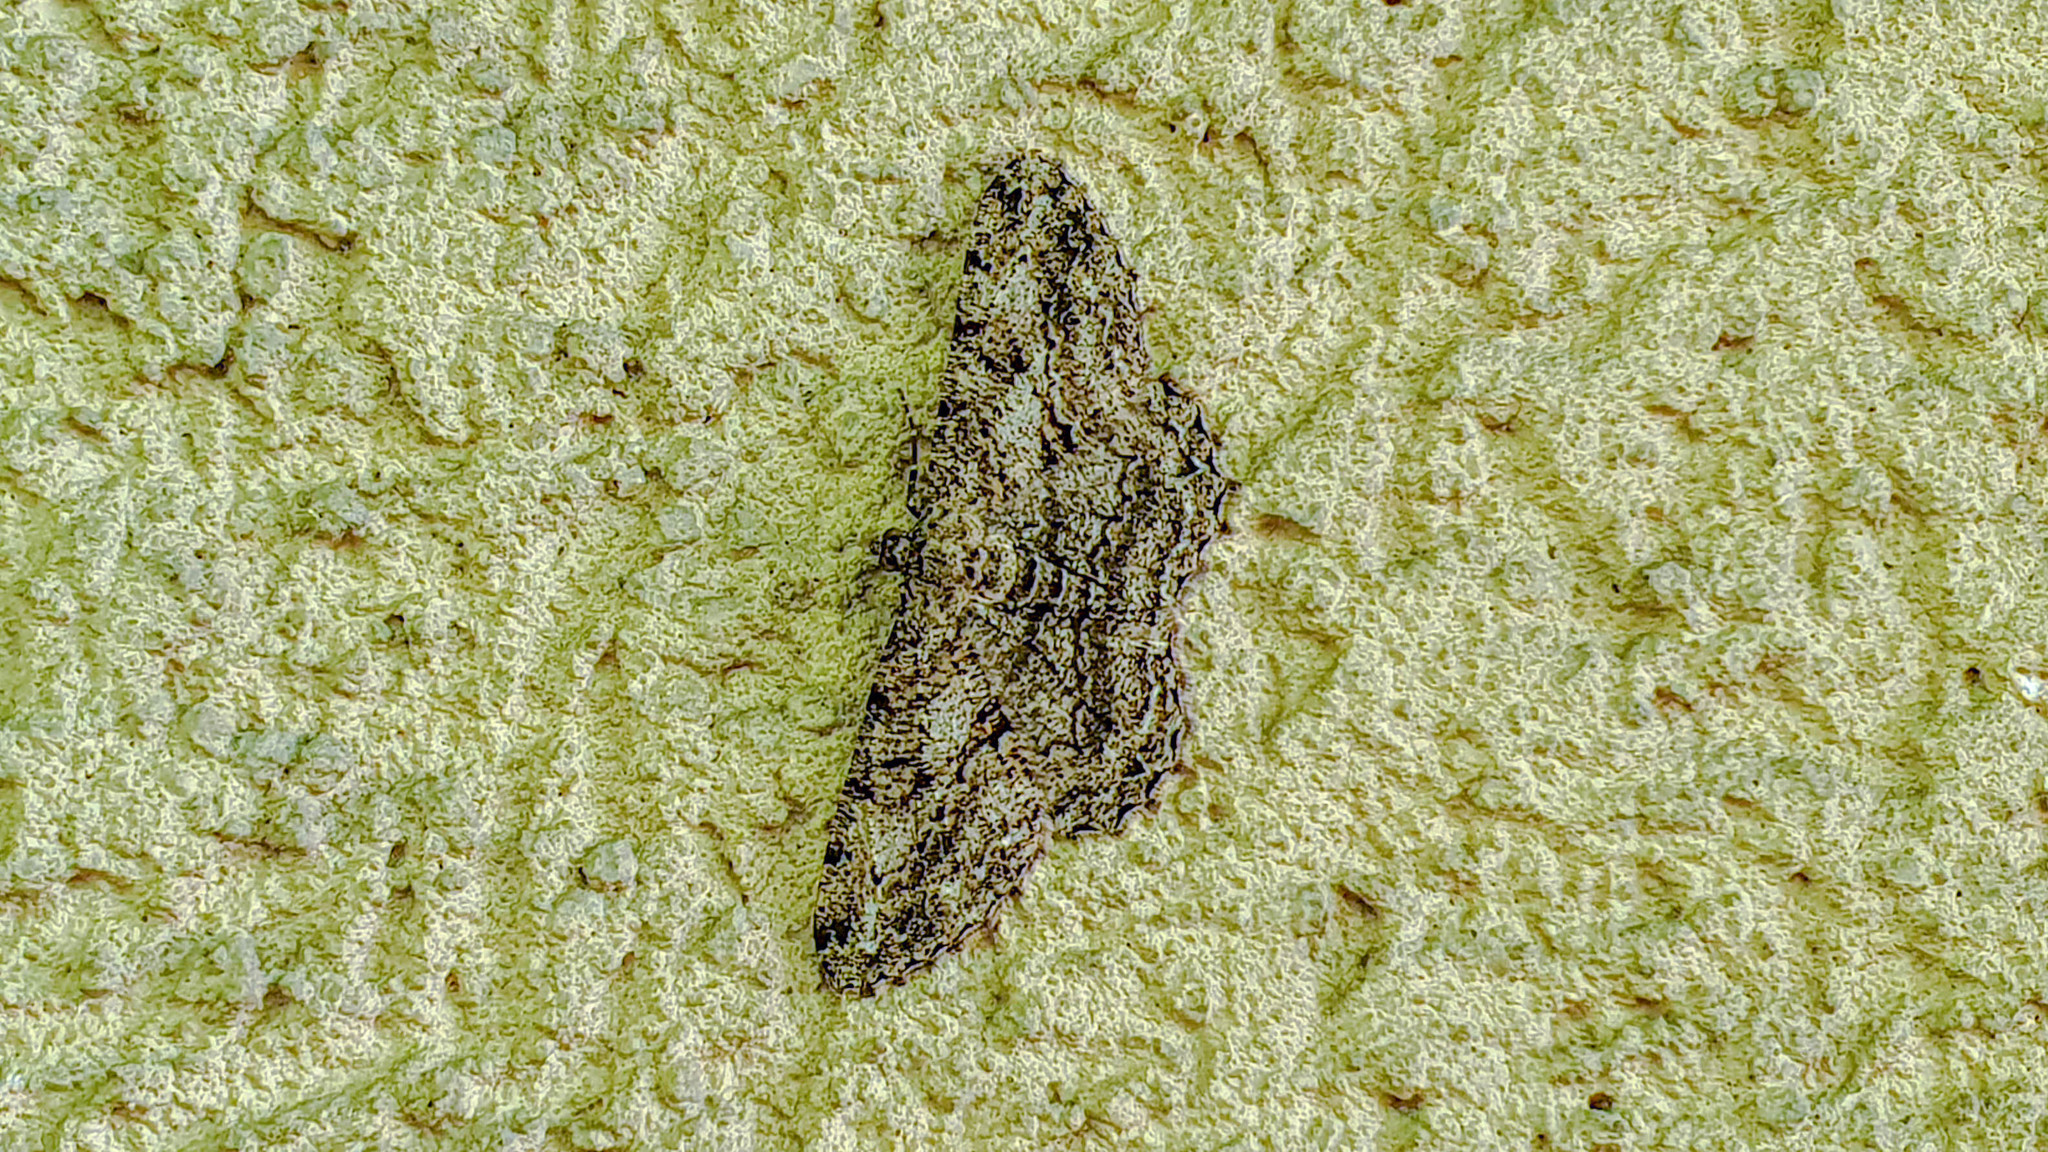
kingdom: Animalia
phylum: Arthropoda
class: Insecta
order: Lepidoptera
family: Geometridae
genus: Peribatodes
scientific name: Peribatodes rhomboidaria
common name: Willow beauty
